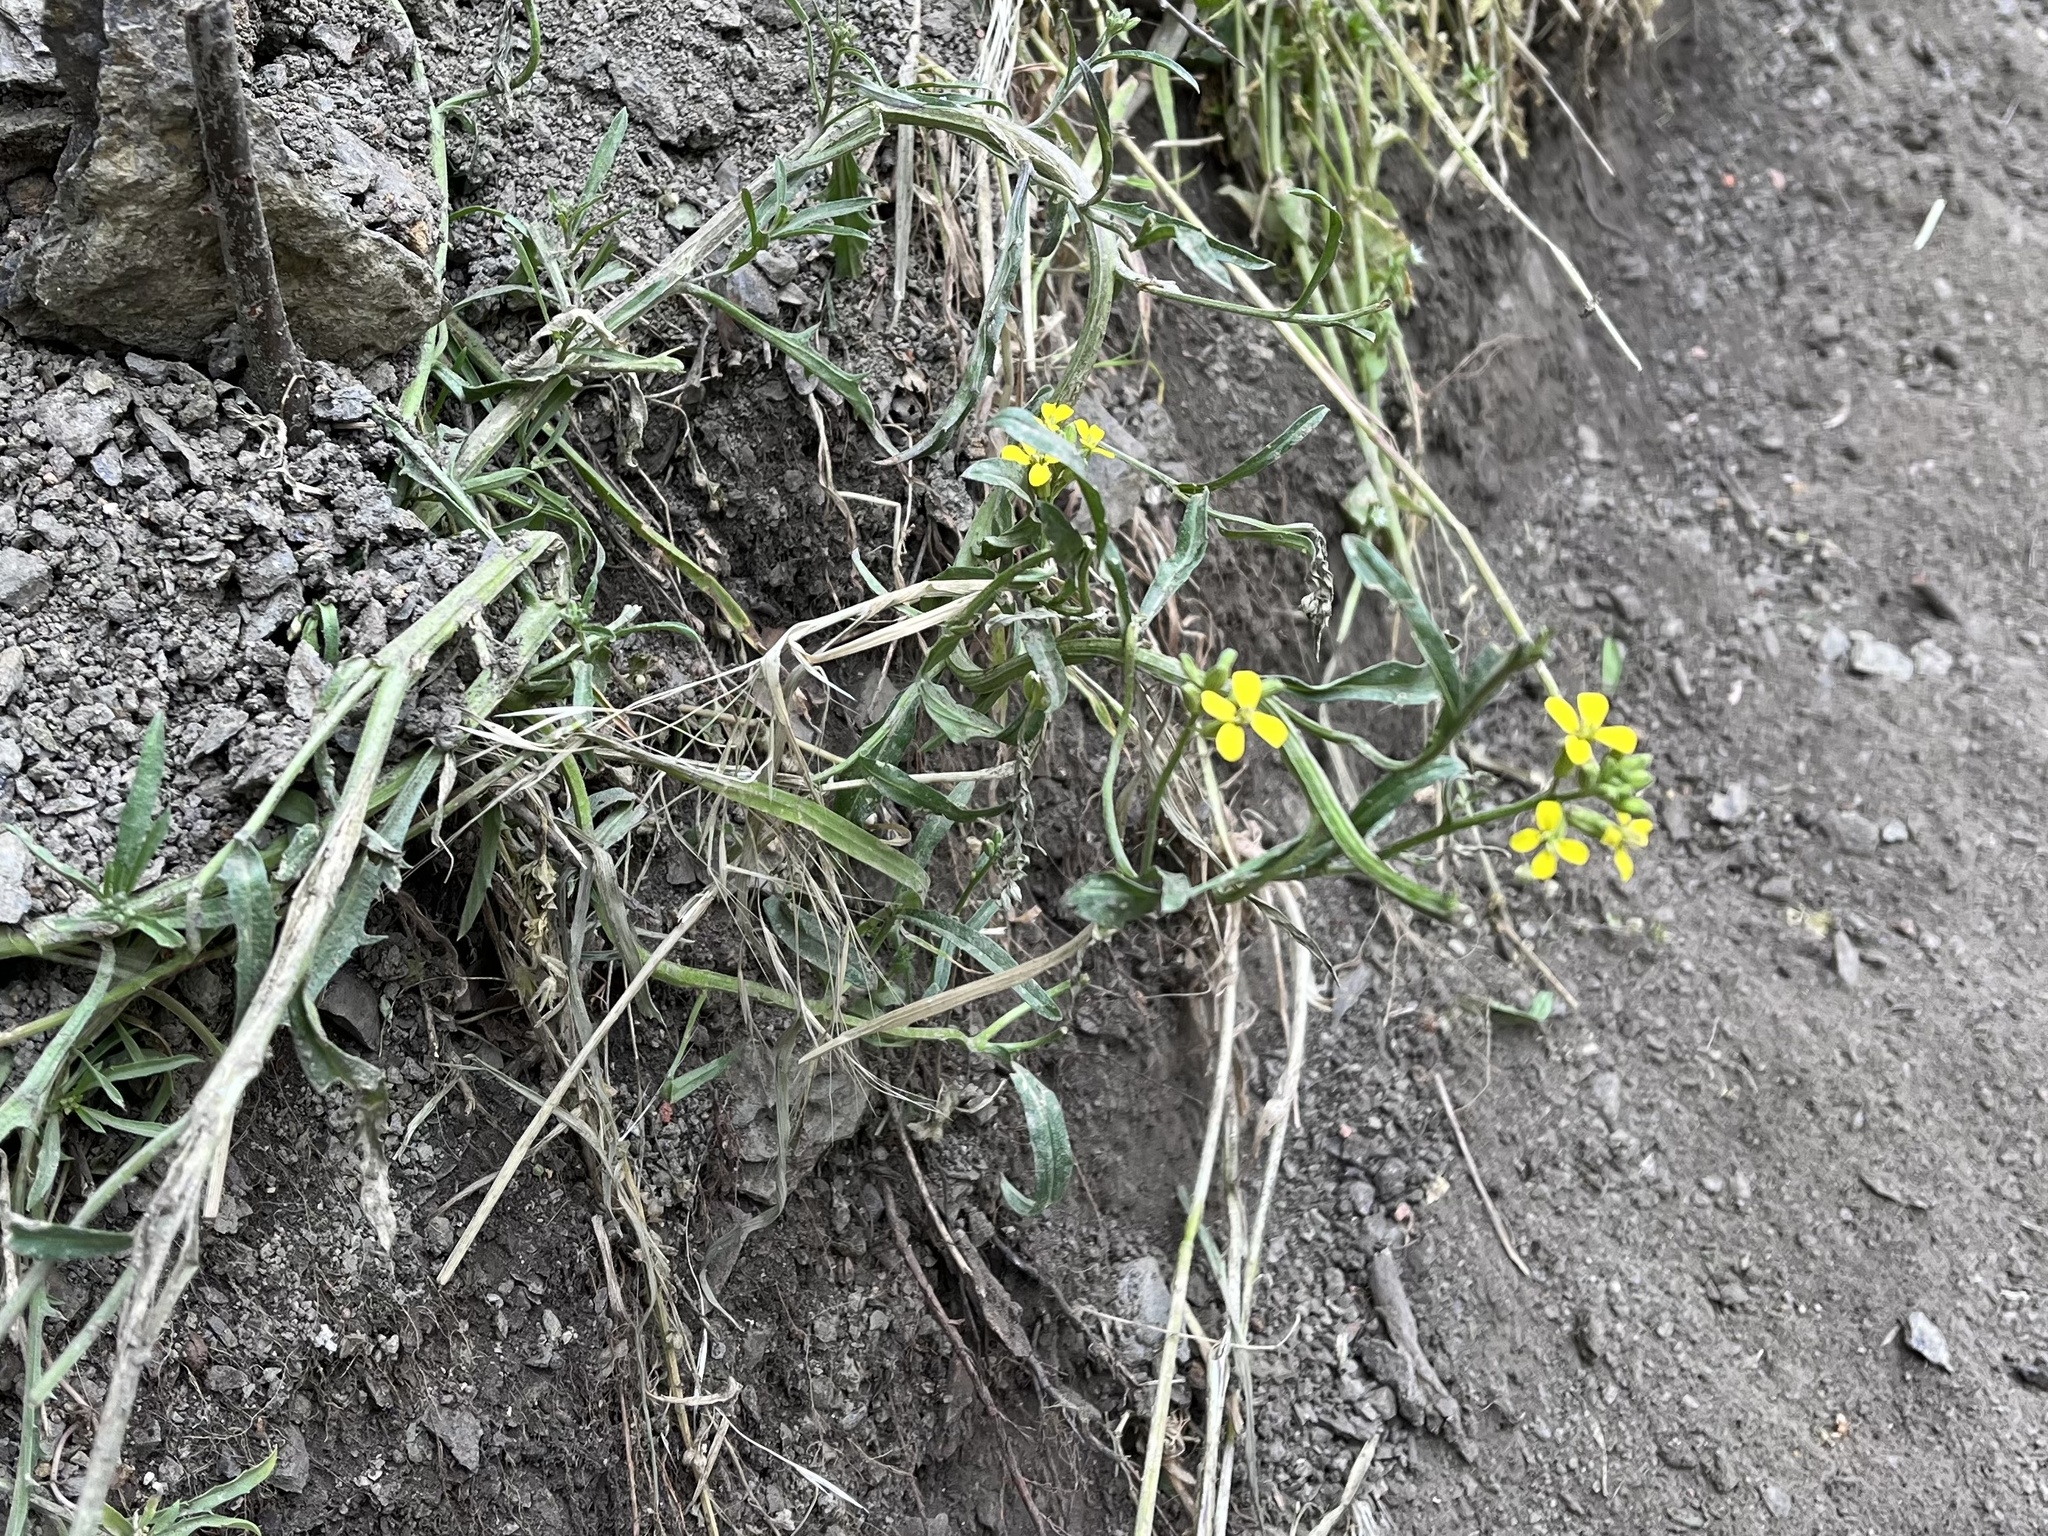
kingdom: Plantae
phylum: Tracheophyta
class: Magnoliopsida
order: Brassicales
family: Brassicaceae
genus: Erysimum
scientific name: Erysimum crepidifolium
